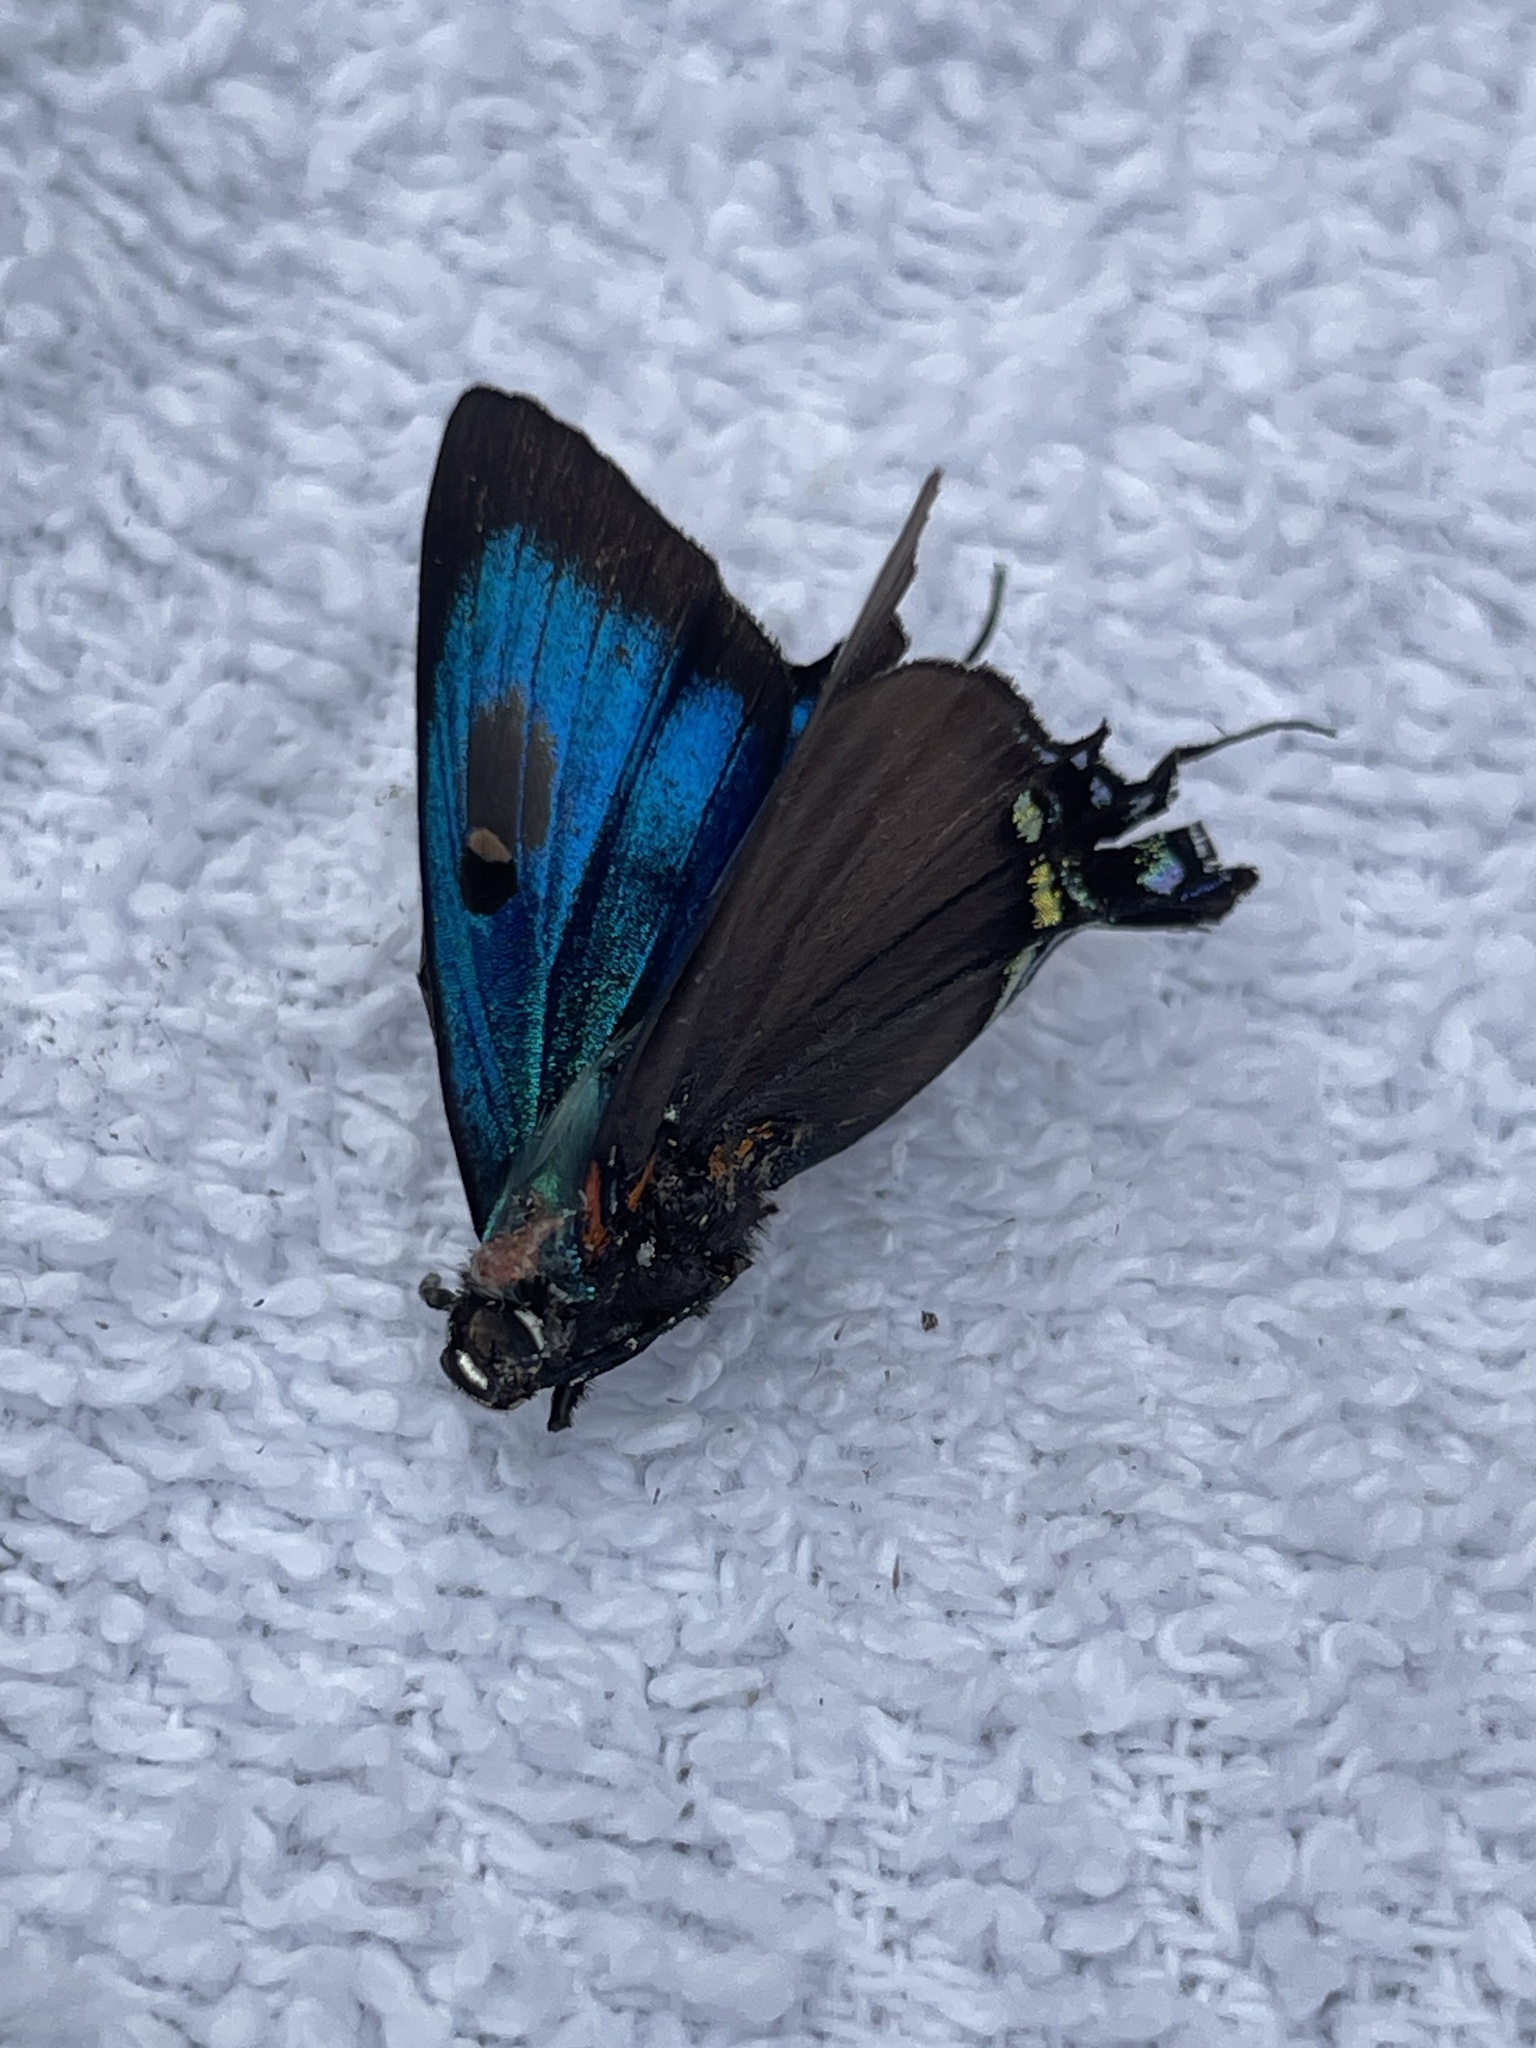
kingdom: Animalia
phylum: Arthropoda
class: Insecta
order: Lepidoptera
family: Lycaenidae
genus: Atlides
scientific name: Atlides halesus
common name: Great purple hairstreak
